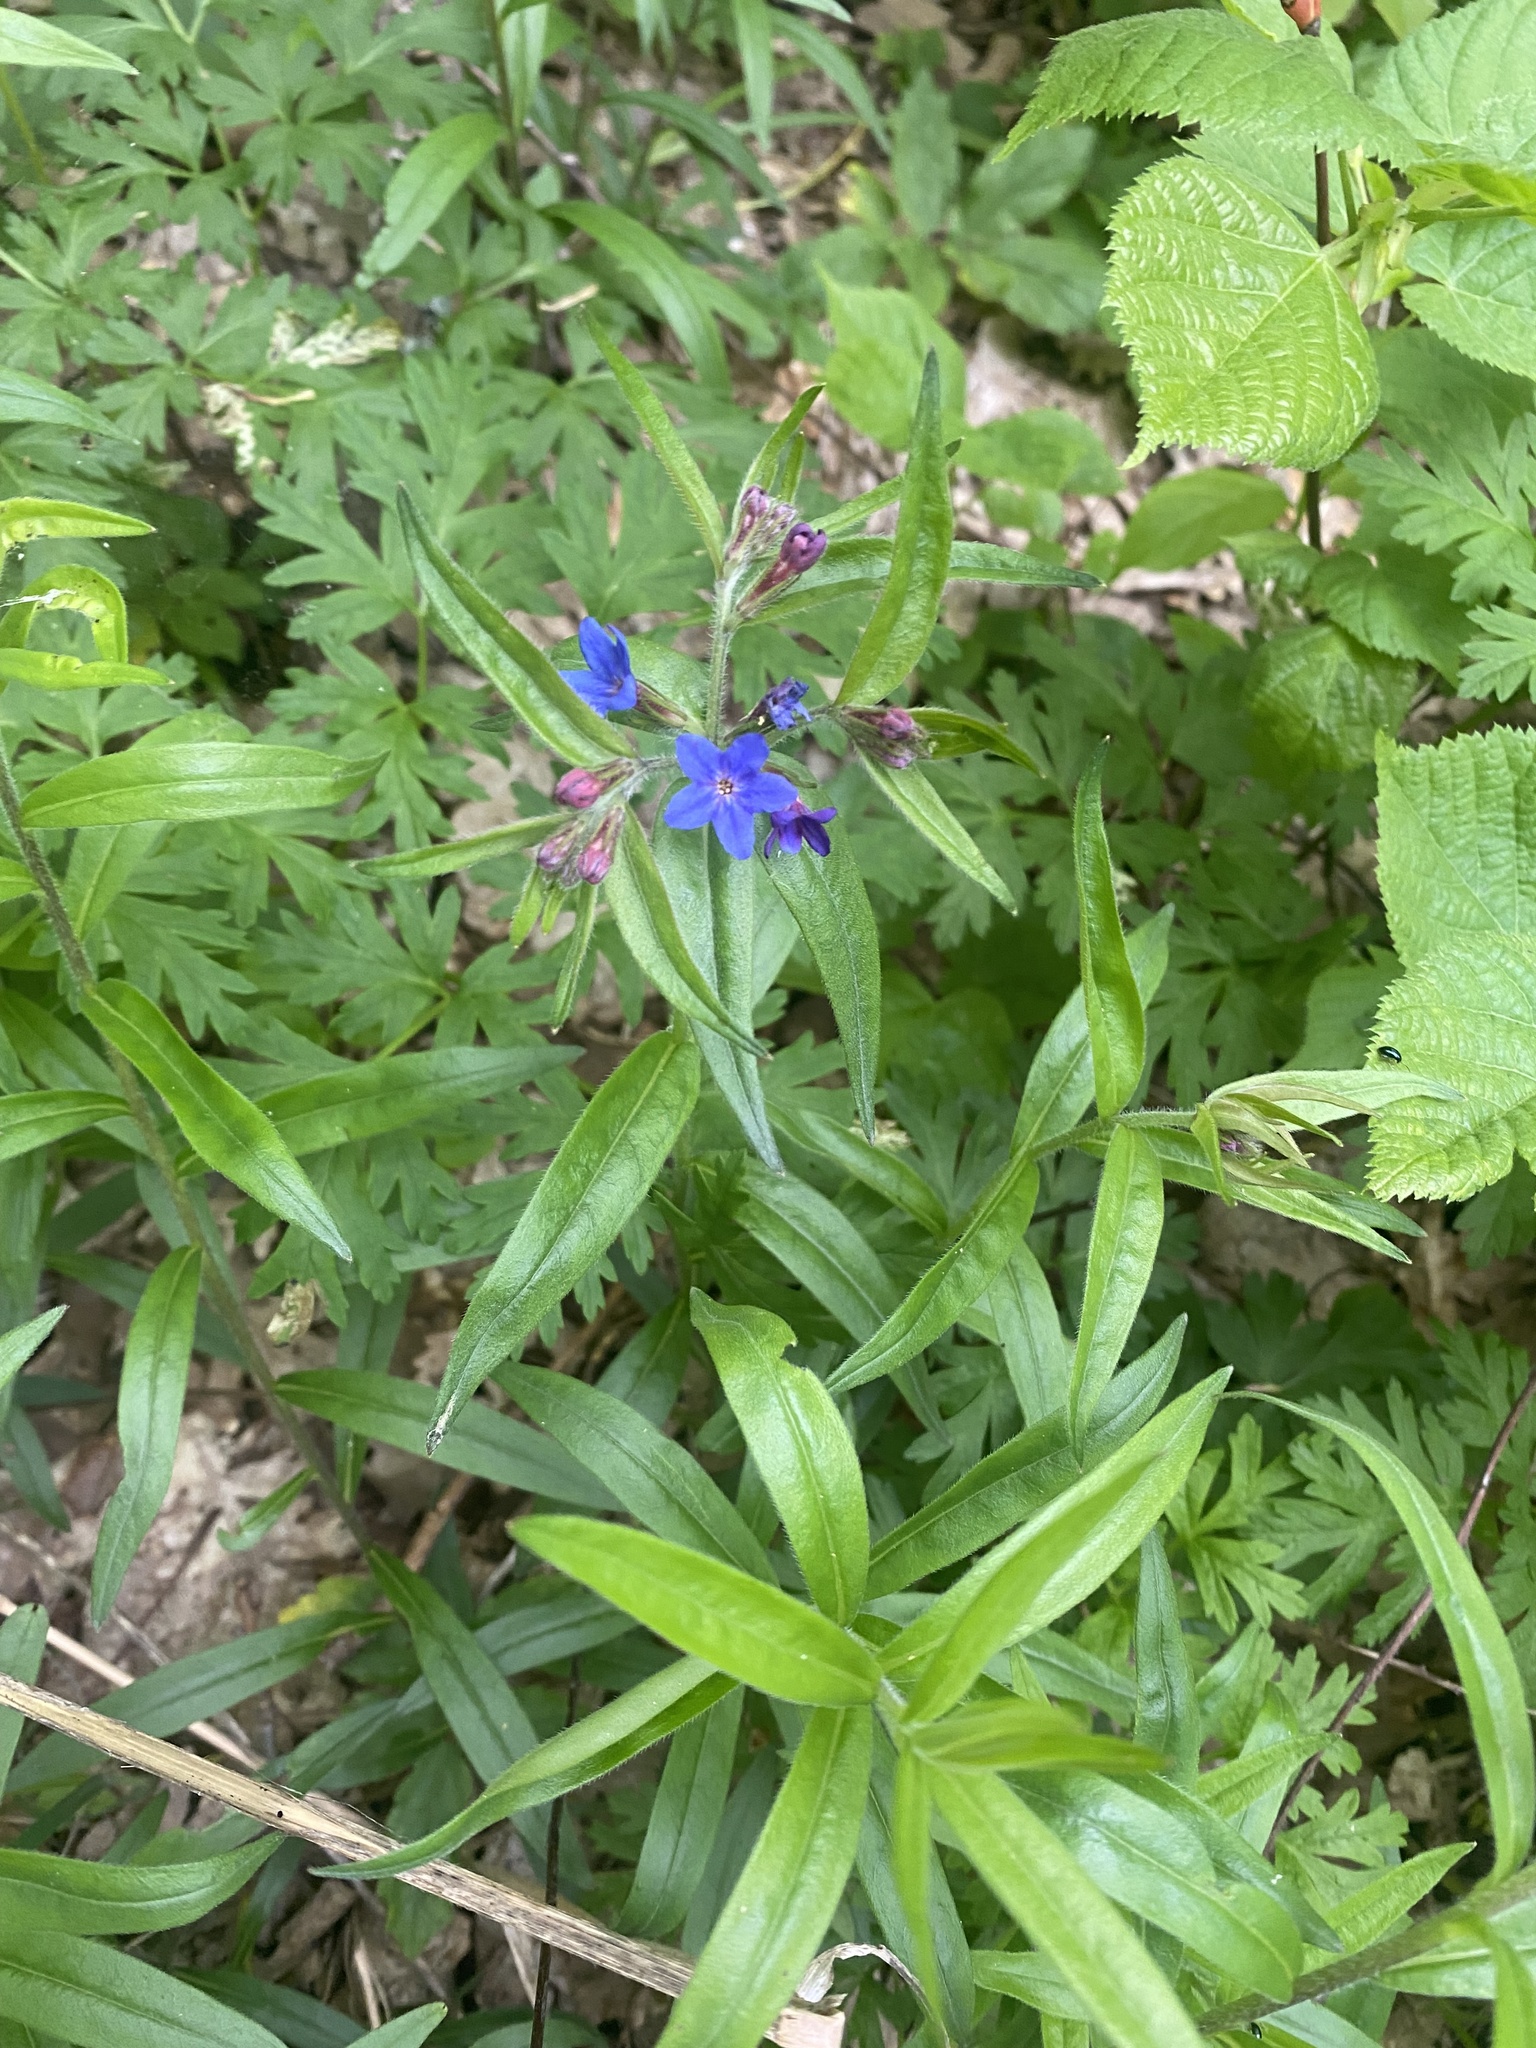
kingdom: Plantae
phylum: Tracheophyta
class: Magnoliopsida
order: Boraginales
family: Boraginaceae
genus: Aegonychon
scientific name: Aegonychon purpurocaeruleum
